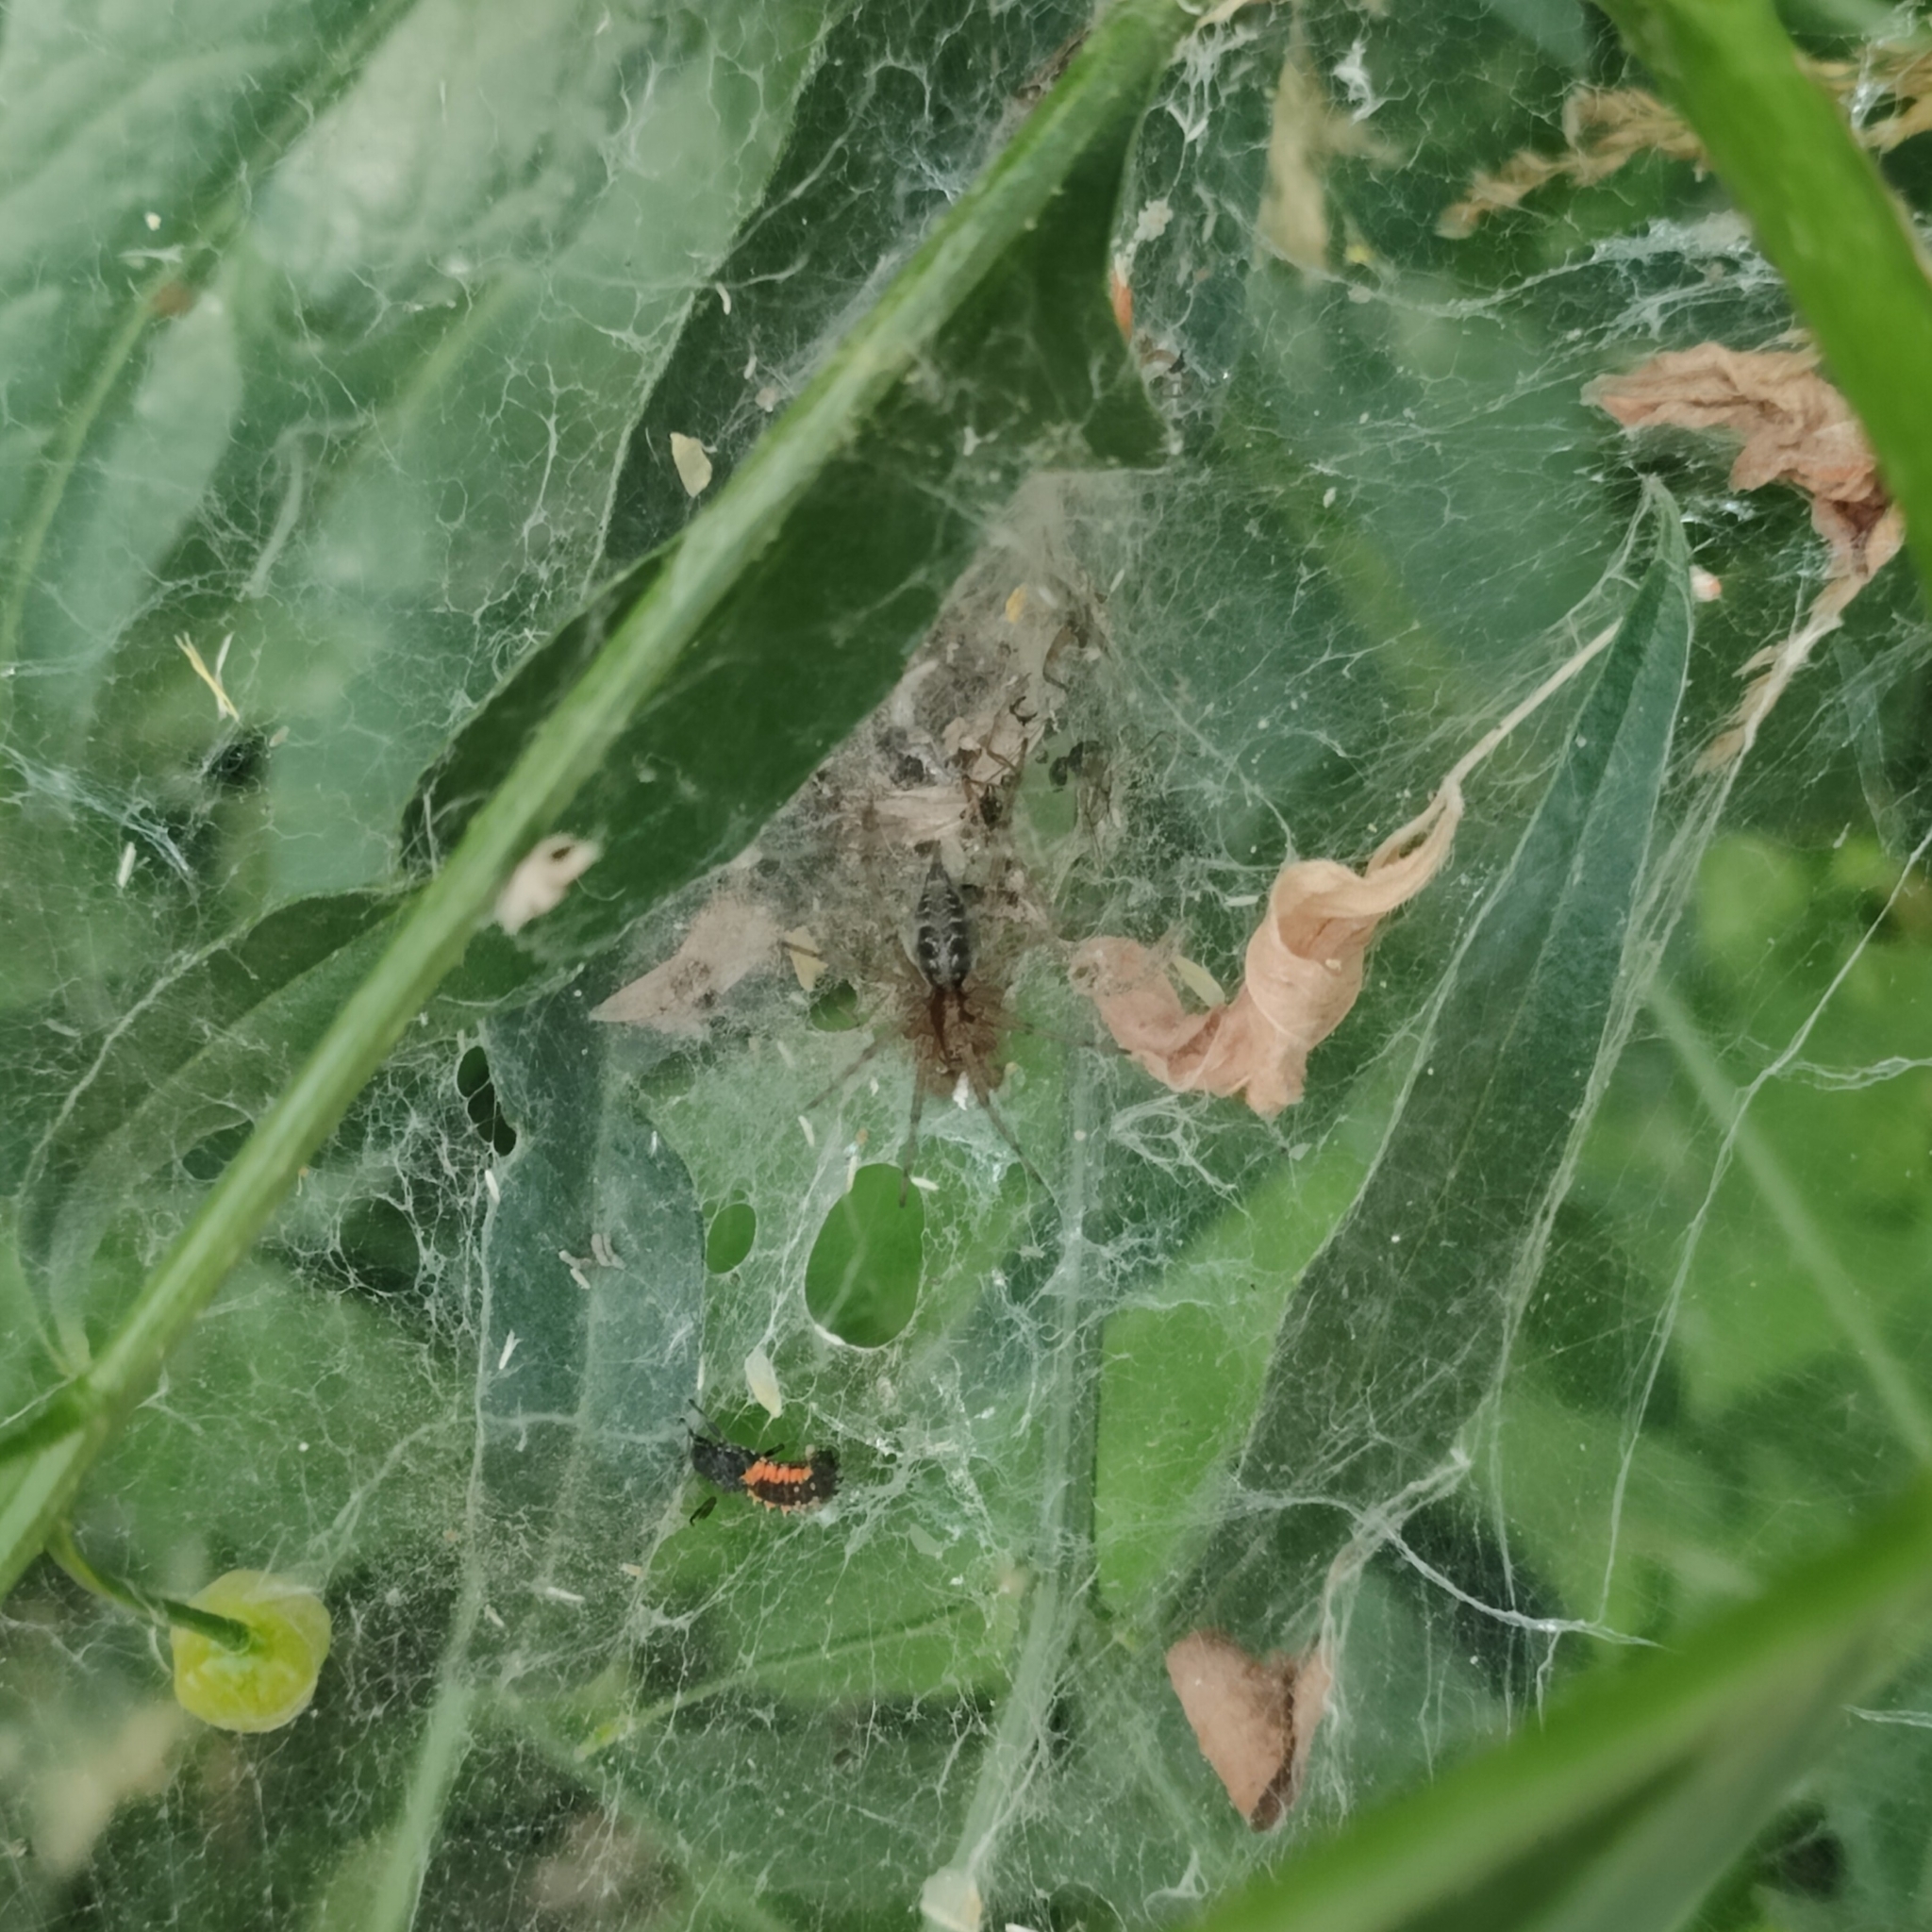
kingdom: Animalia
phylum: Arthropoda
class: Arachnida
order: Araneae
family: Agelenidae
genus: Agelena
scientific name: Agelena labyrinthica
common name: Labyrinth spider
